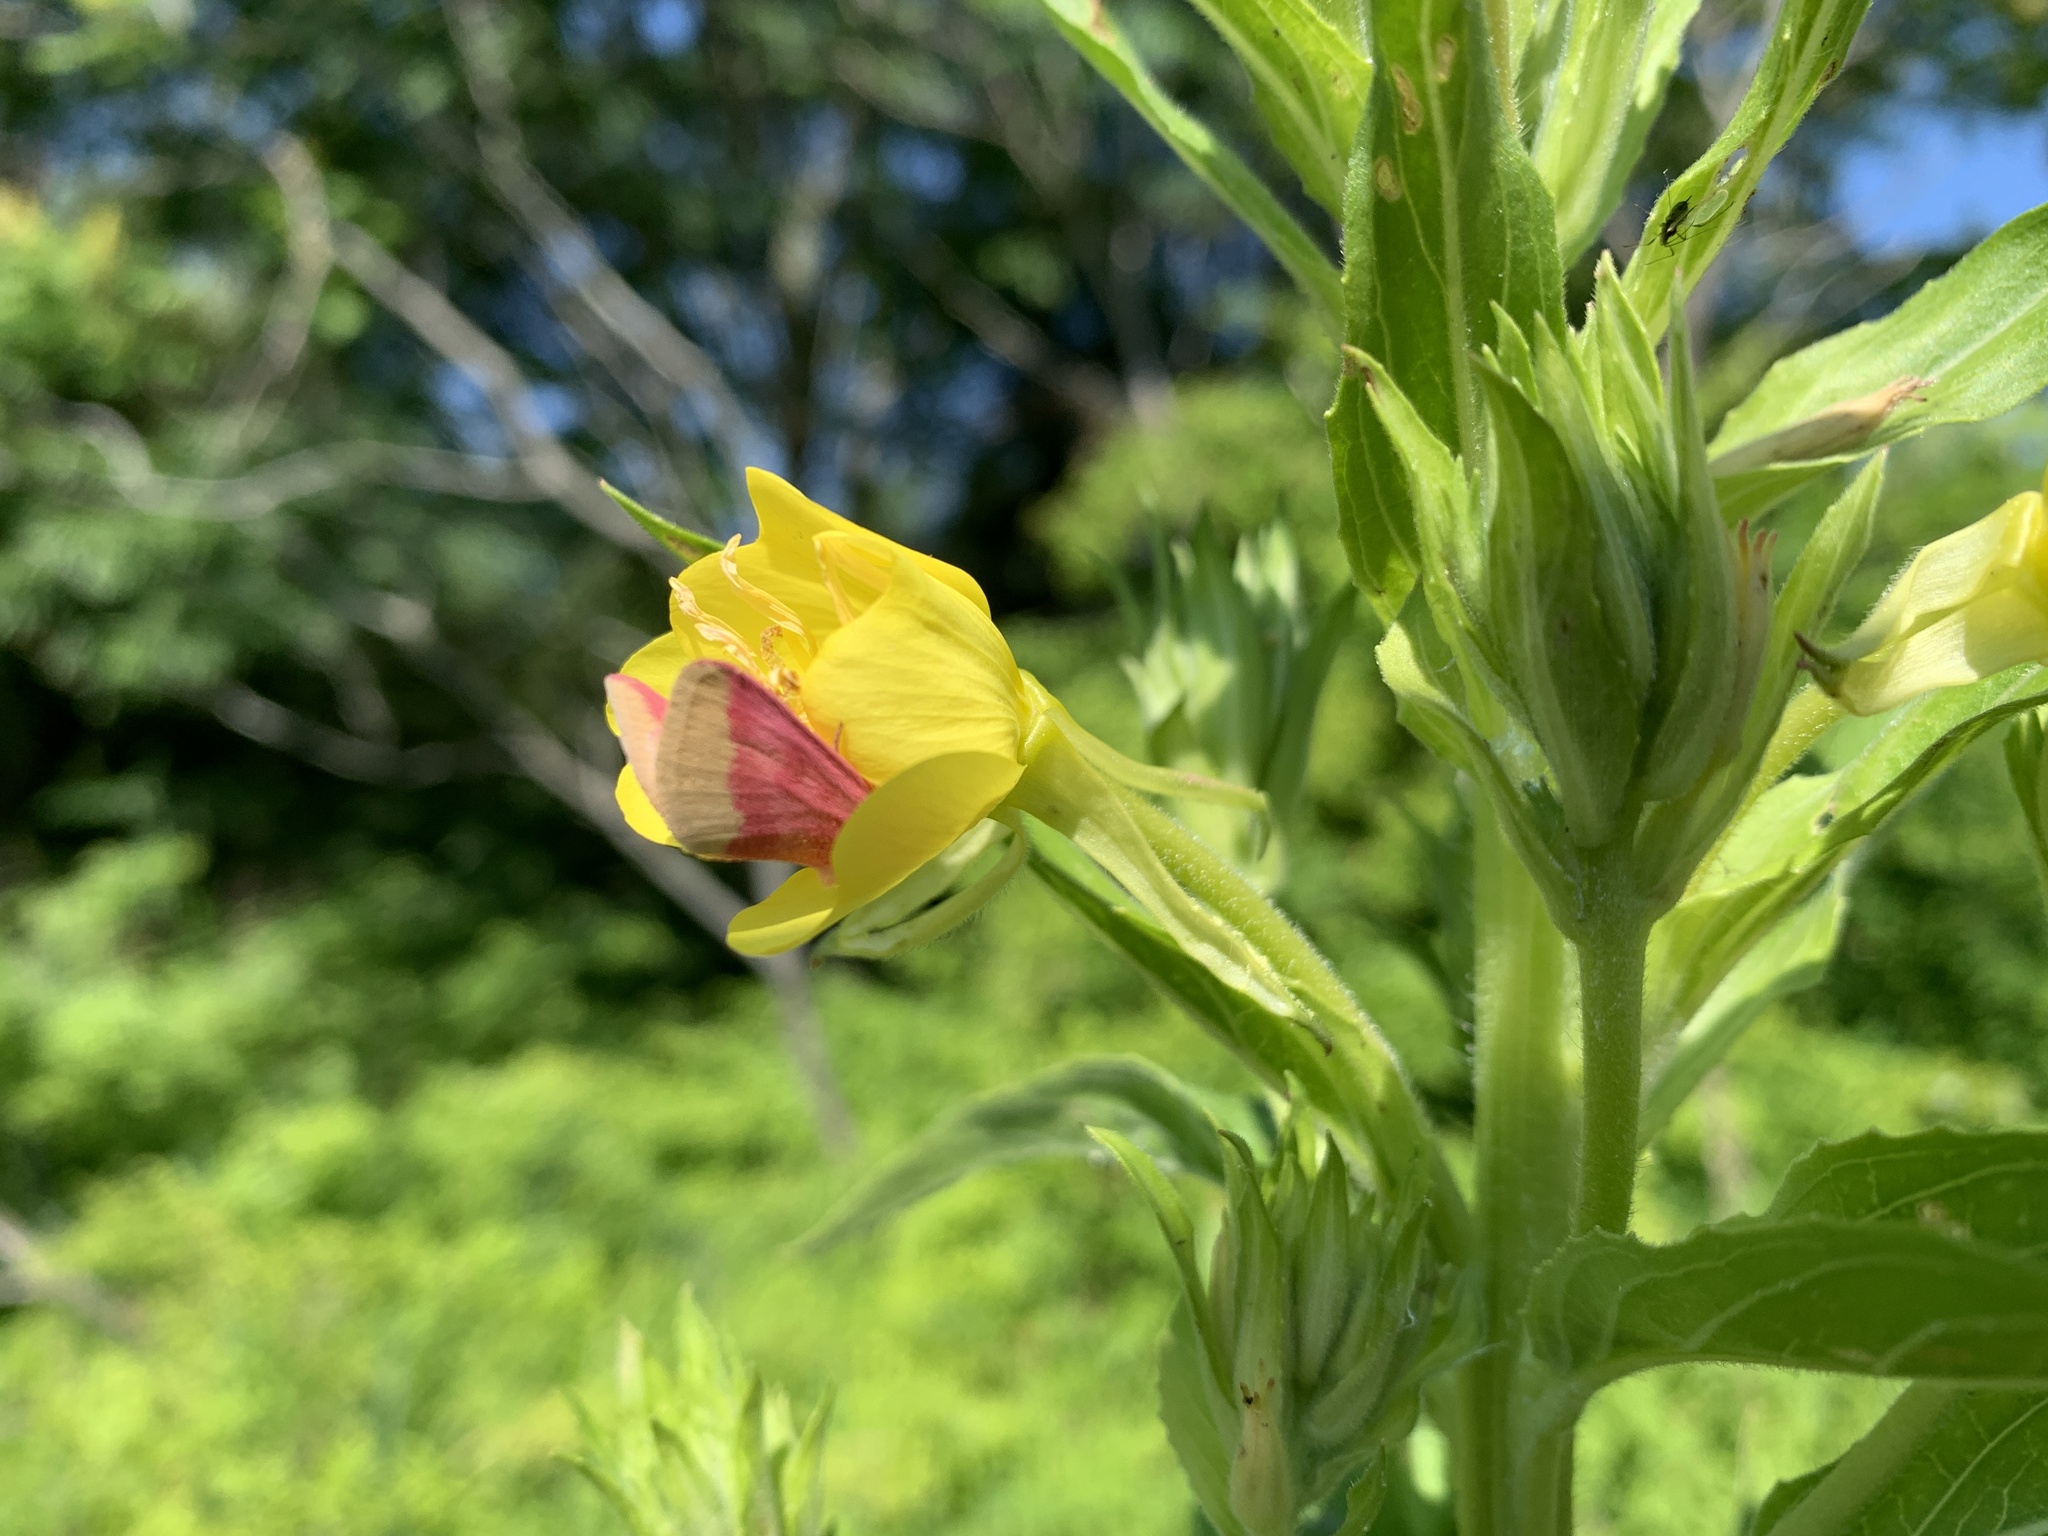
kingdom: Animalia
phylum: Arthropoda
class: Insecta
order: Lepidoptera
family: Noctuidae
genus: Schinia
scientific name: Schinia florida
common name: Primrose moth
